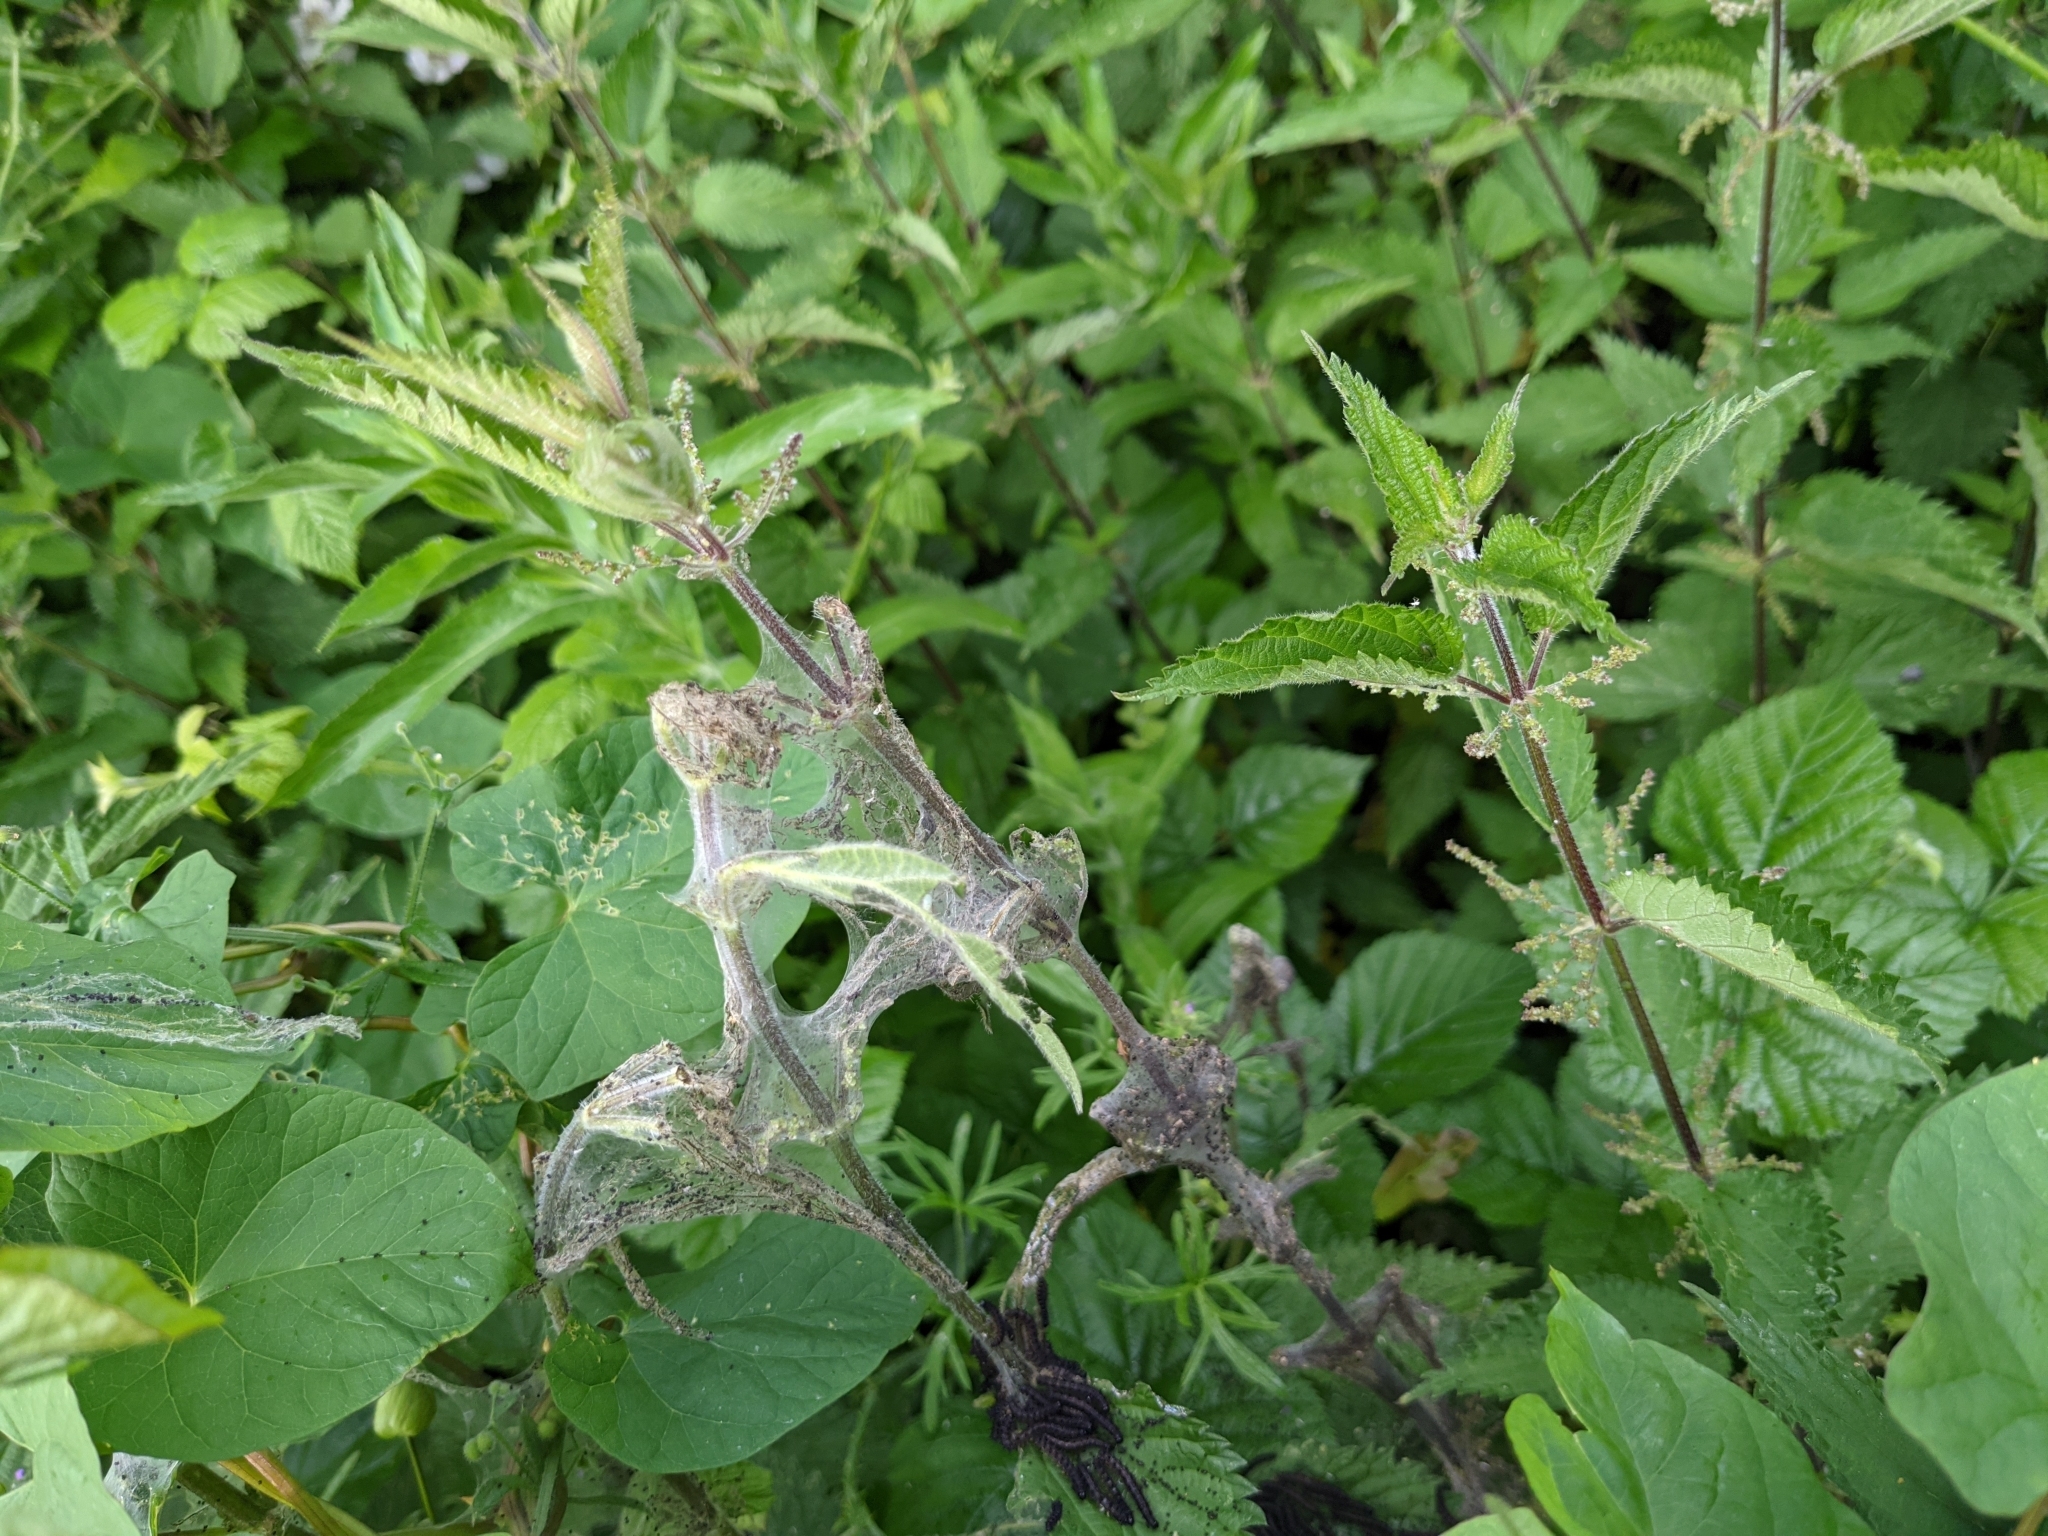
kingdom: Animalia
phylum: Arthropoda
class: Insecta
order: Lepidoptera
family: Nymphalidae
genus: Aglais
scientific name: Aglais io
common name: Peacock
